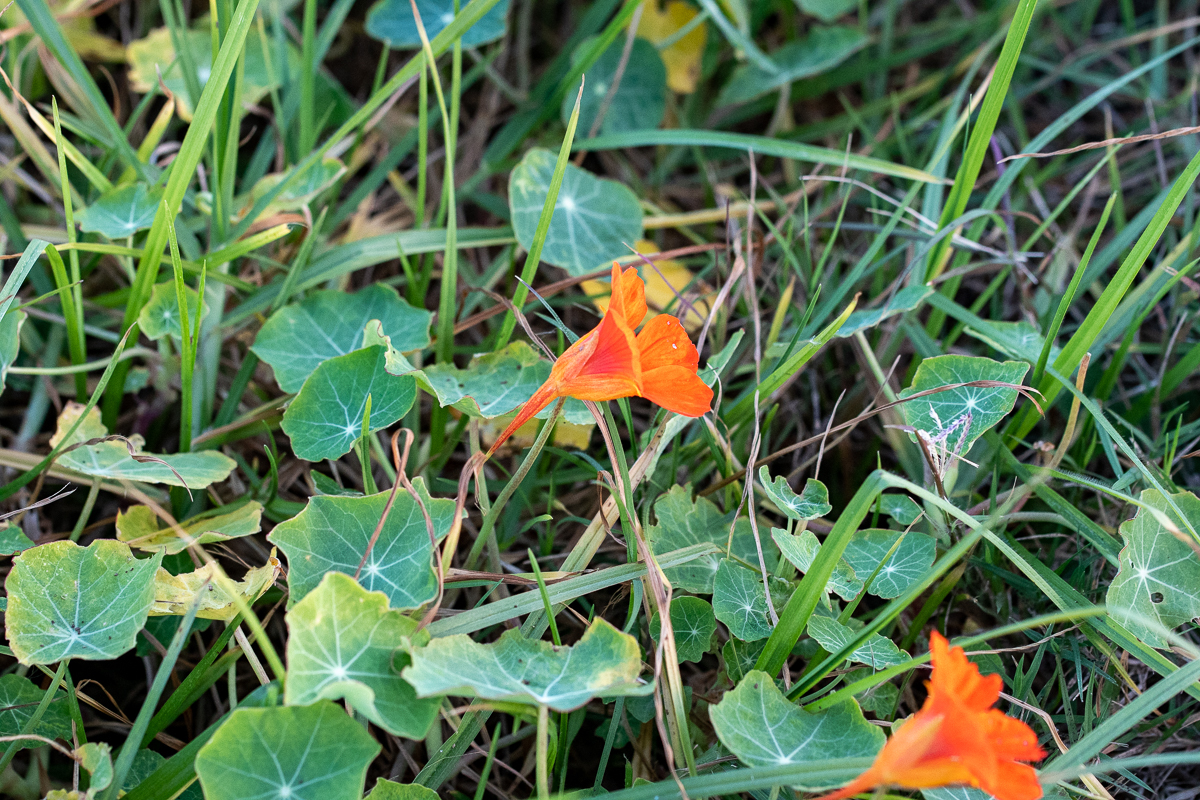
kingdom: Plantae
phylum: Tracheophyta
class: Magnoliopsida
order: Brassicales
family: Tropaeolaceae
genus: Tropaeolum
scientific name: Tropaeolum majus
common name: Nasturtium
